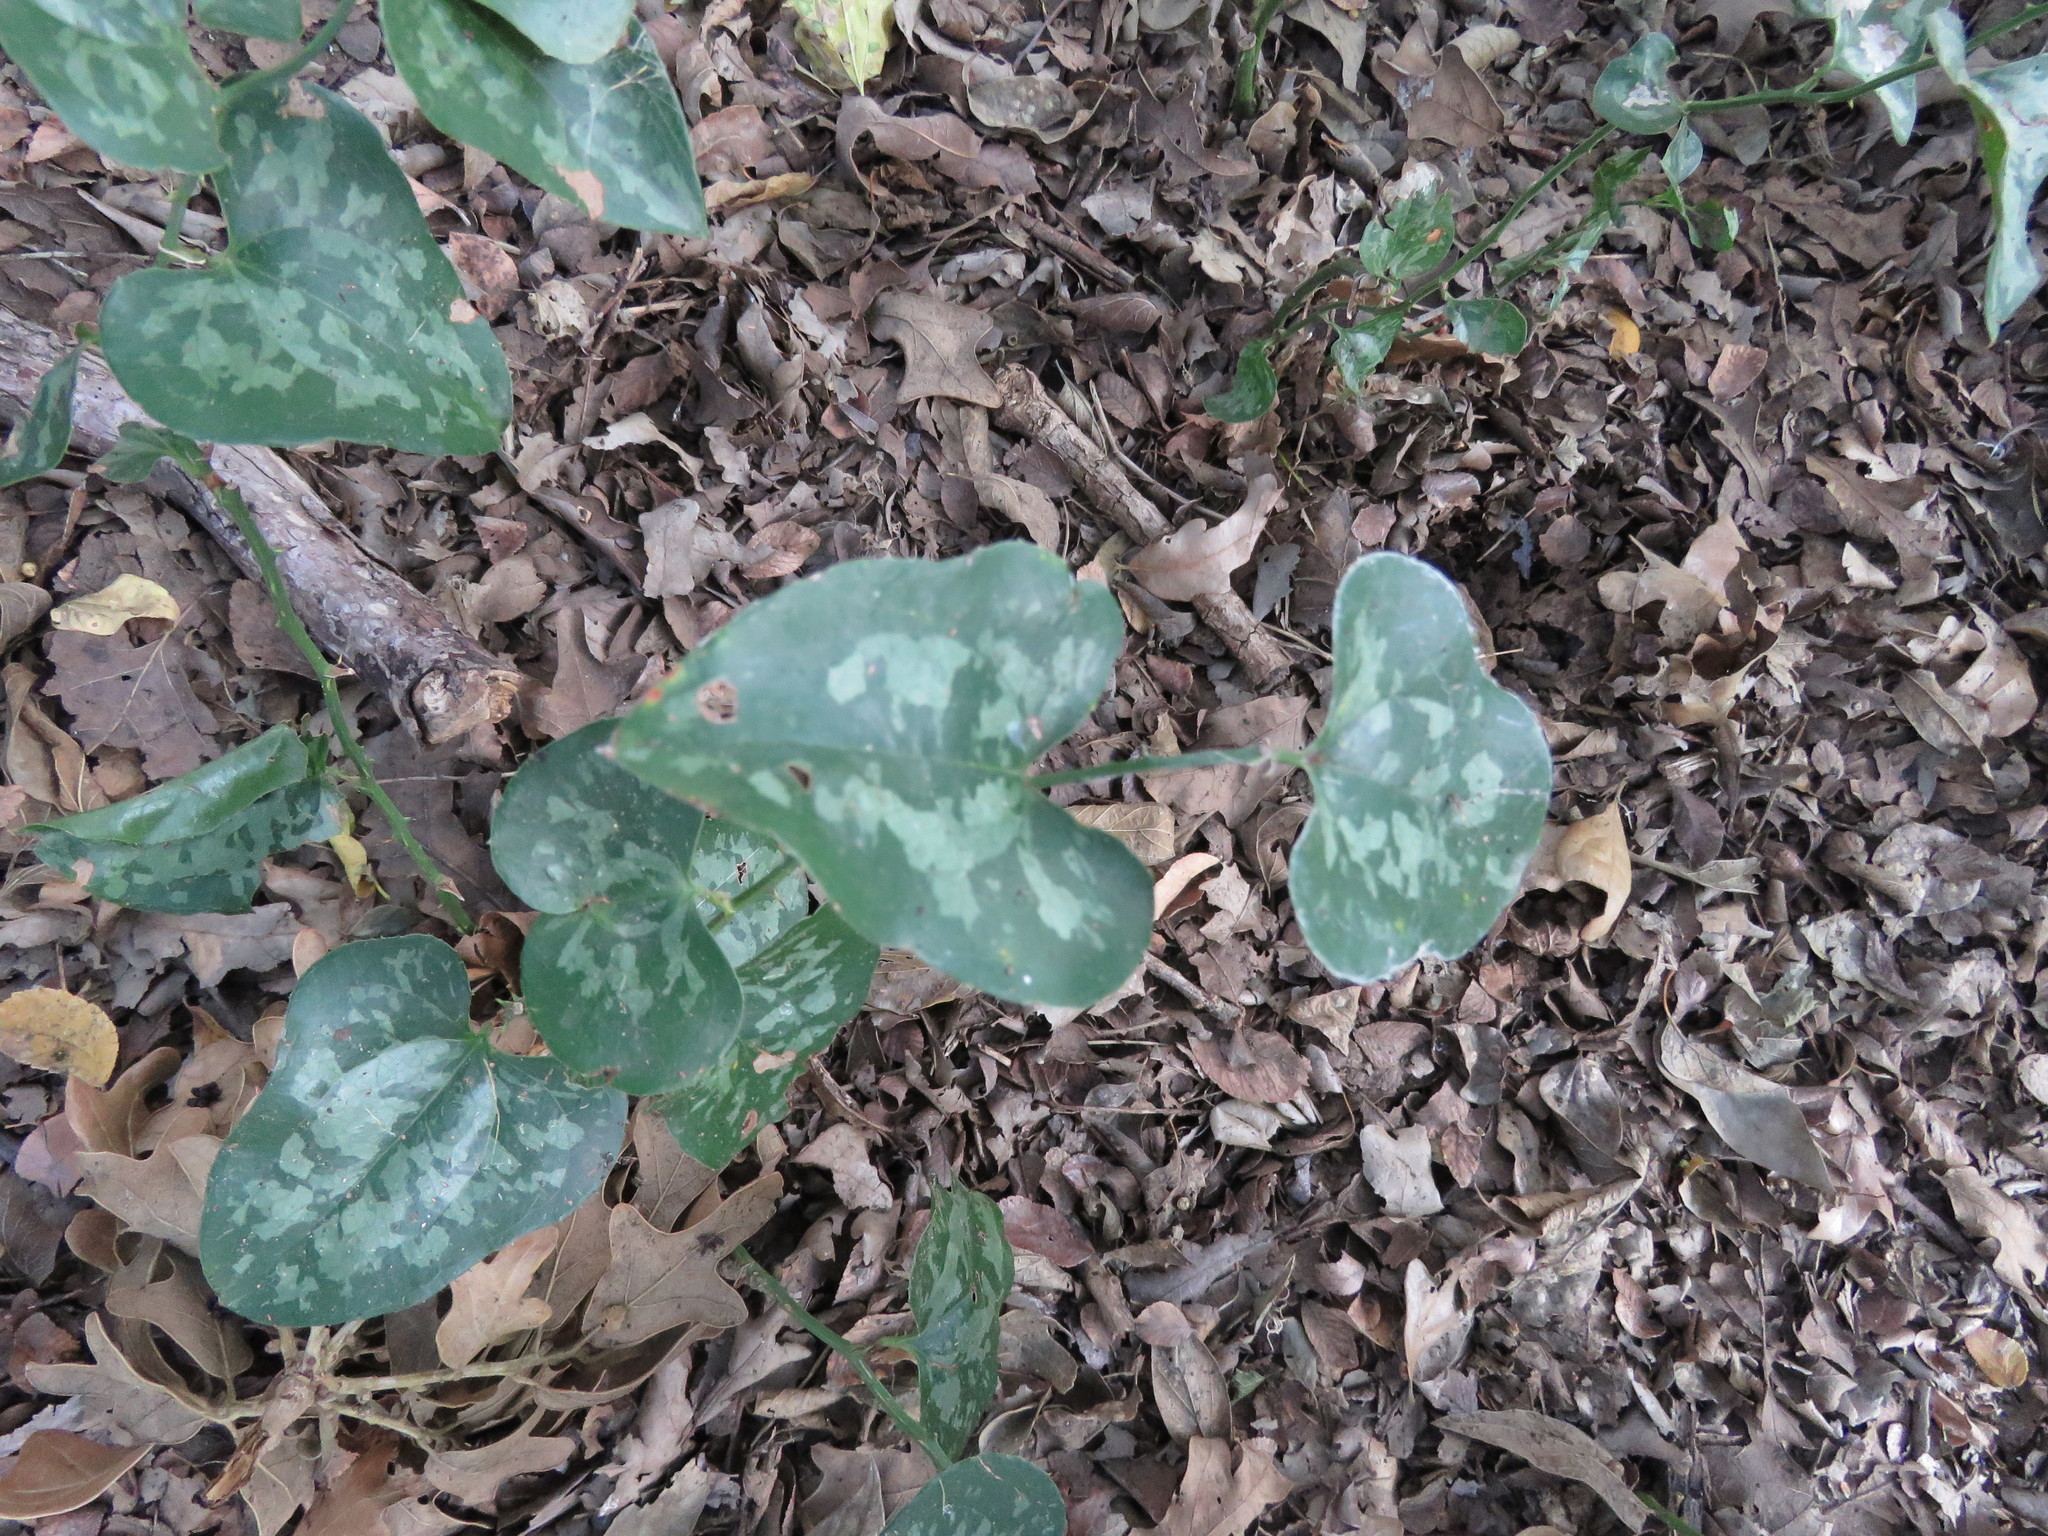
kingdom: Plantae
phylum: Tracheophyta
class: Liliopsida
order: Liliales
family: Smilacaceae
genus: Smilax
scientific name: Smilax bona-nox
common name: Catbrier
